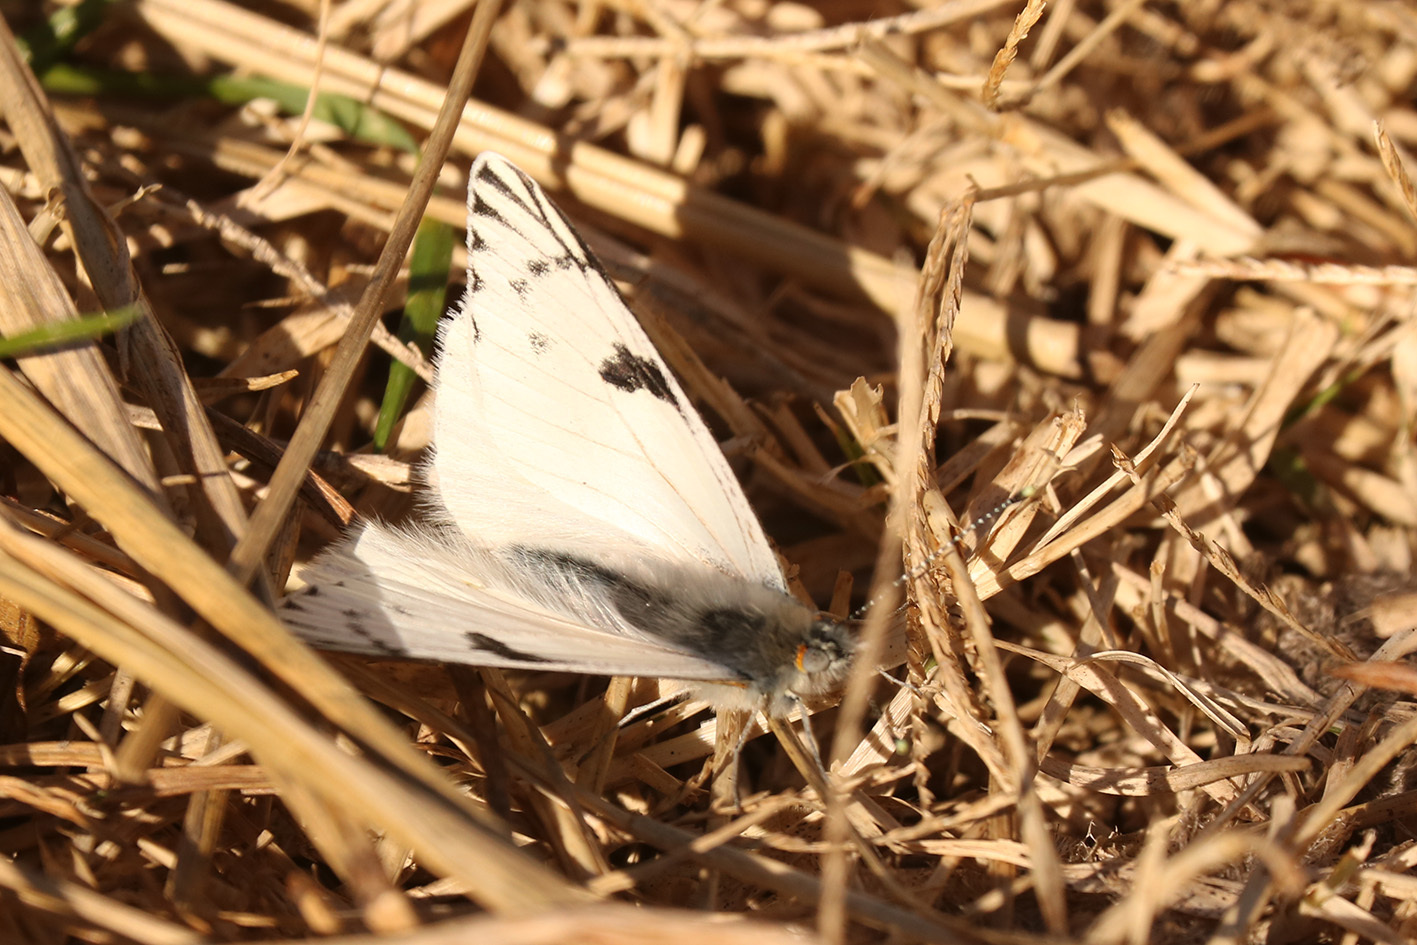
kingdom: Animalia
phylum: Arthropoda
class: Insecta
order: Lepidoptera
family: Pieridae
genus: Tatochila
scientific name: Tatochila autodice
